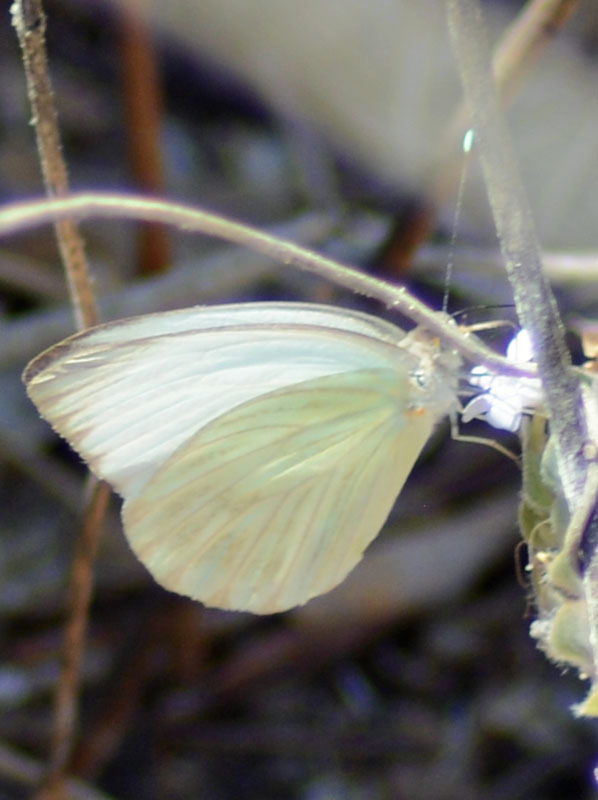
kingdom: Animalia
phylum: Arthropoda
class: Insecta
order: Lepidoptera
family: Pieridae
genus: Ascia
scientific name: Ascia monuste
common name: Great southern white
